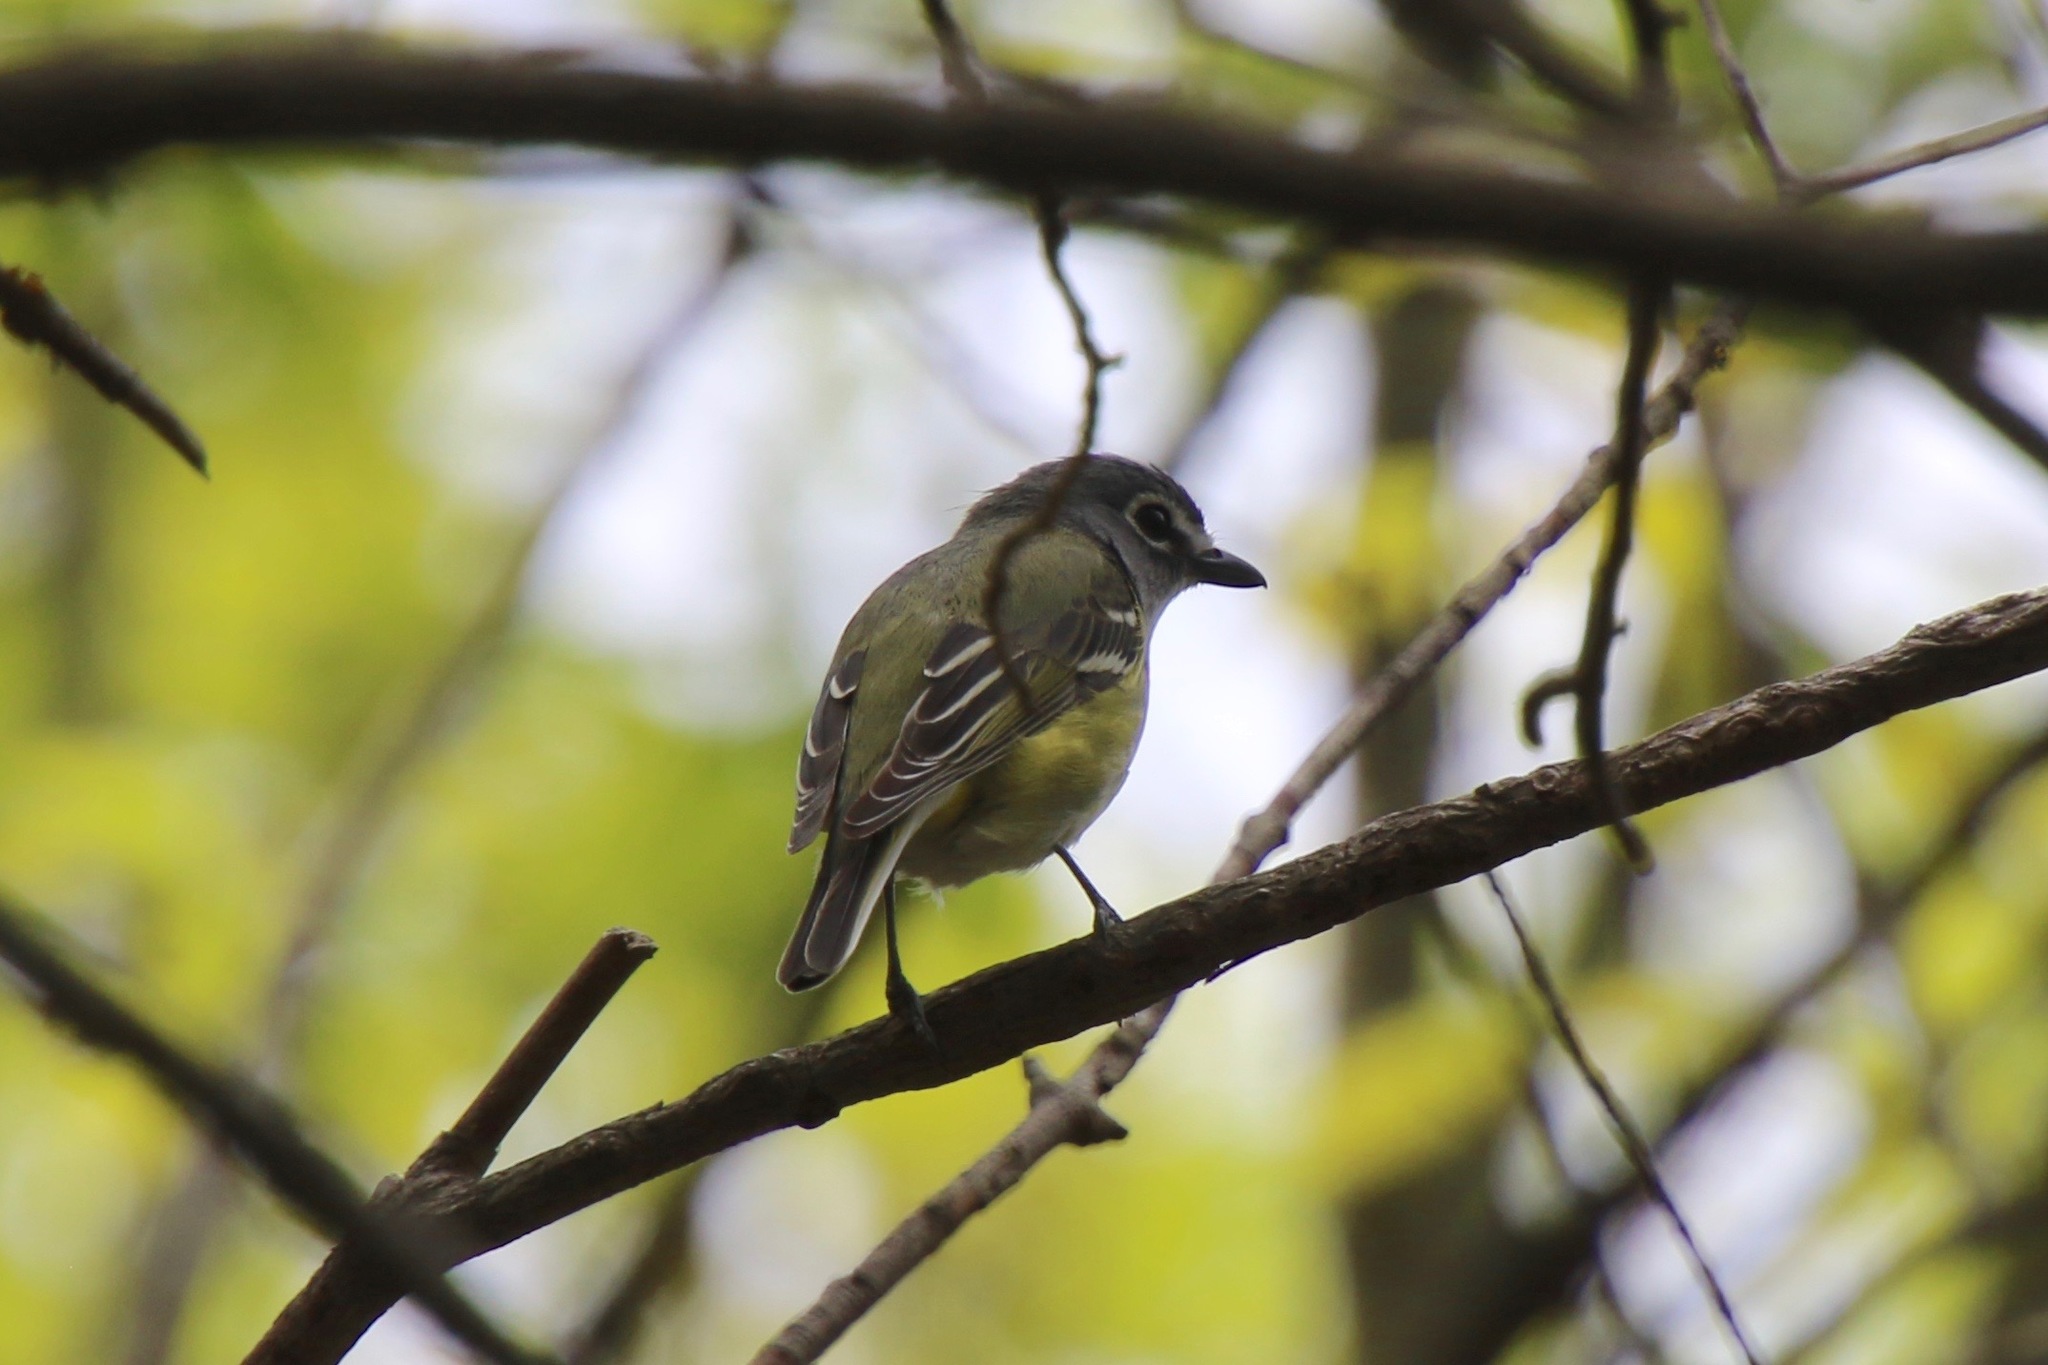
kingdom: Animalia
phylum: Chordata
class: Aves
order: Passeriformes
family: Vireonidae
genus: Vireo
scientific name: Vireo solitarius
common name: Blue-headed vireo
